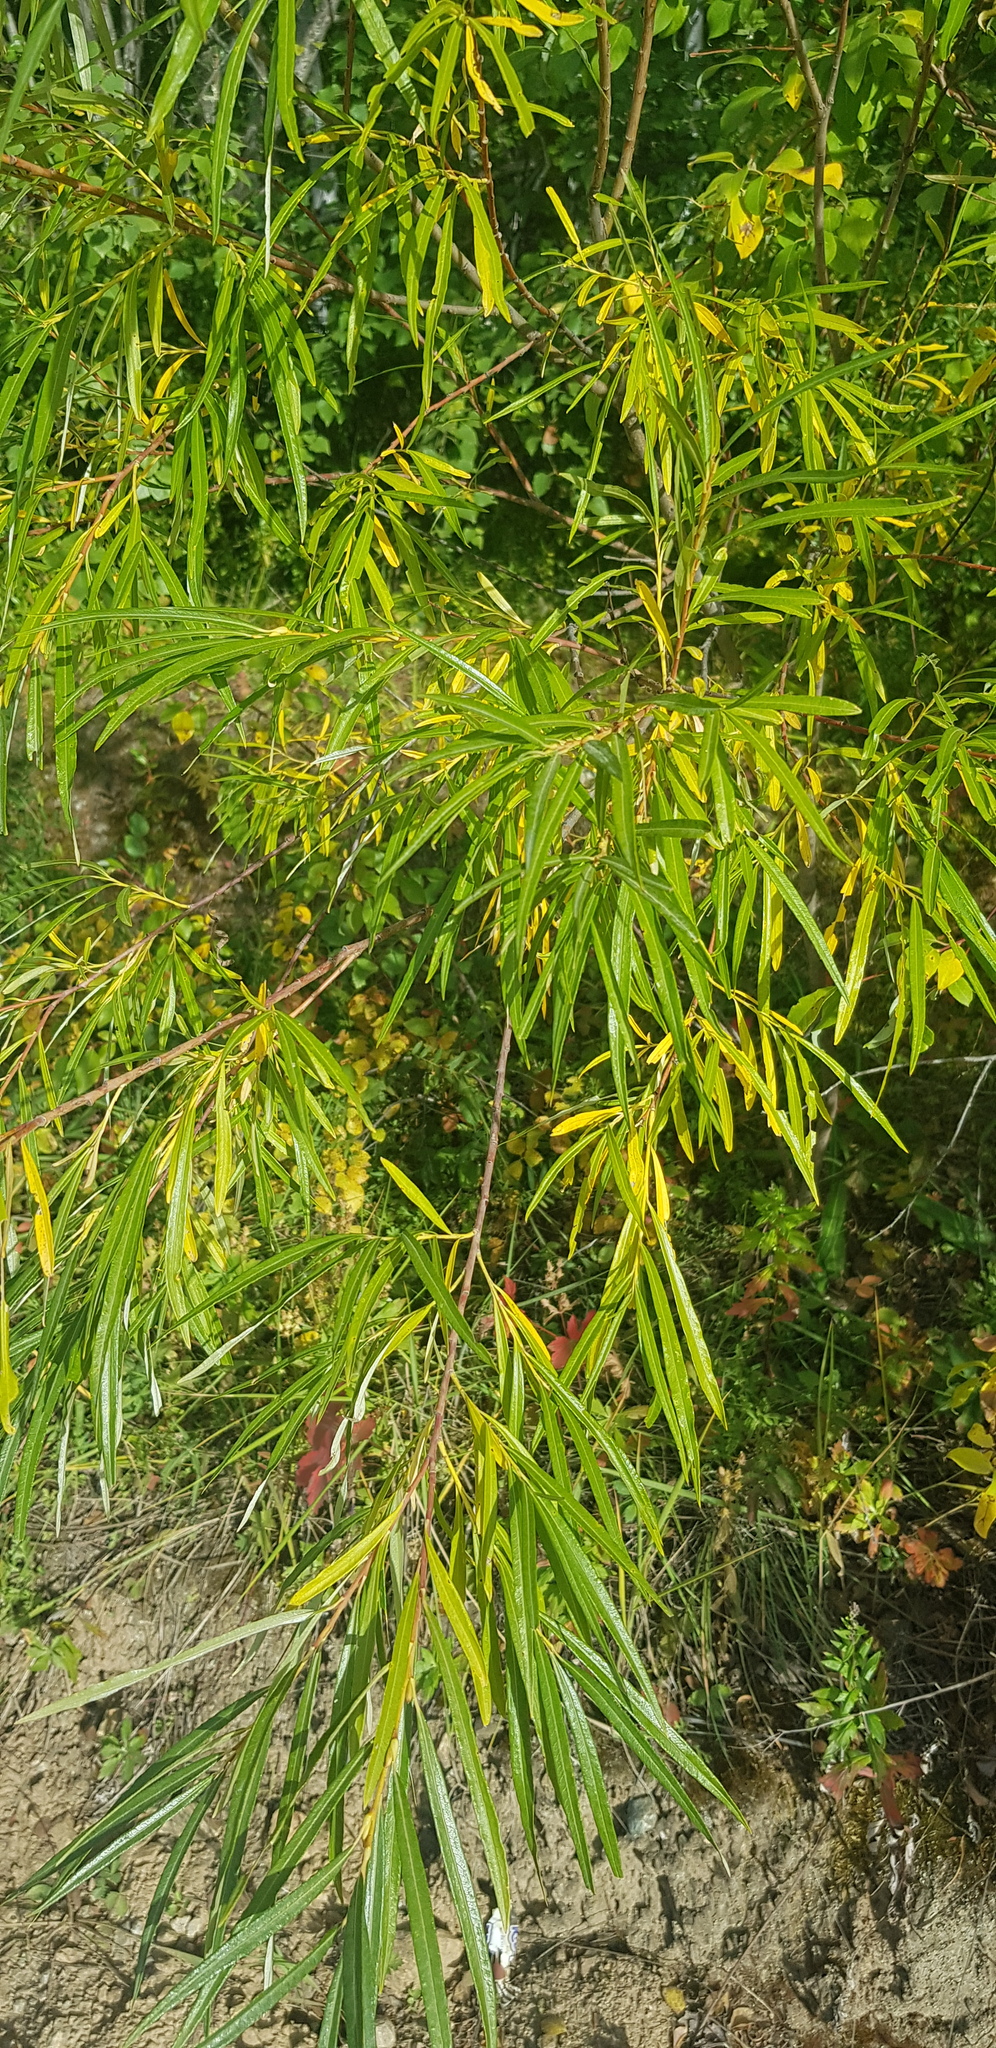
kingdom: Plantae
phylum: Tracheophyta
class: Magnoliopsida
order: Malpighiales
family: Salicaceae
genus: Salix
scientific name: Salix viminalis
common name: Osier
